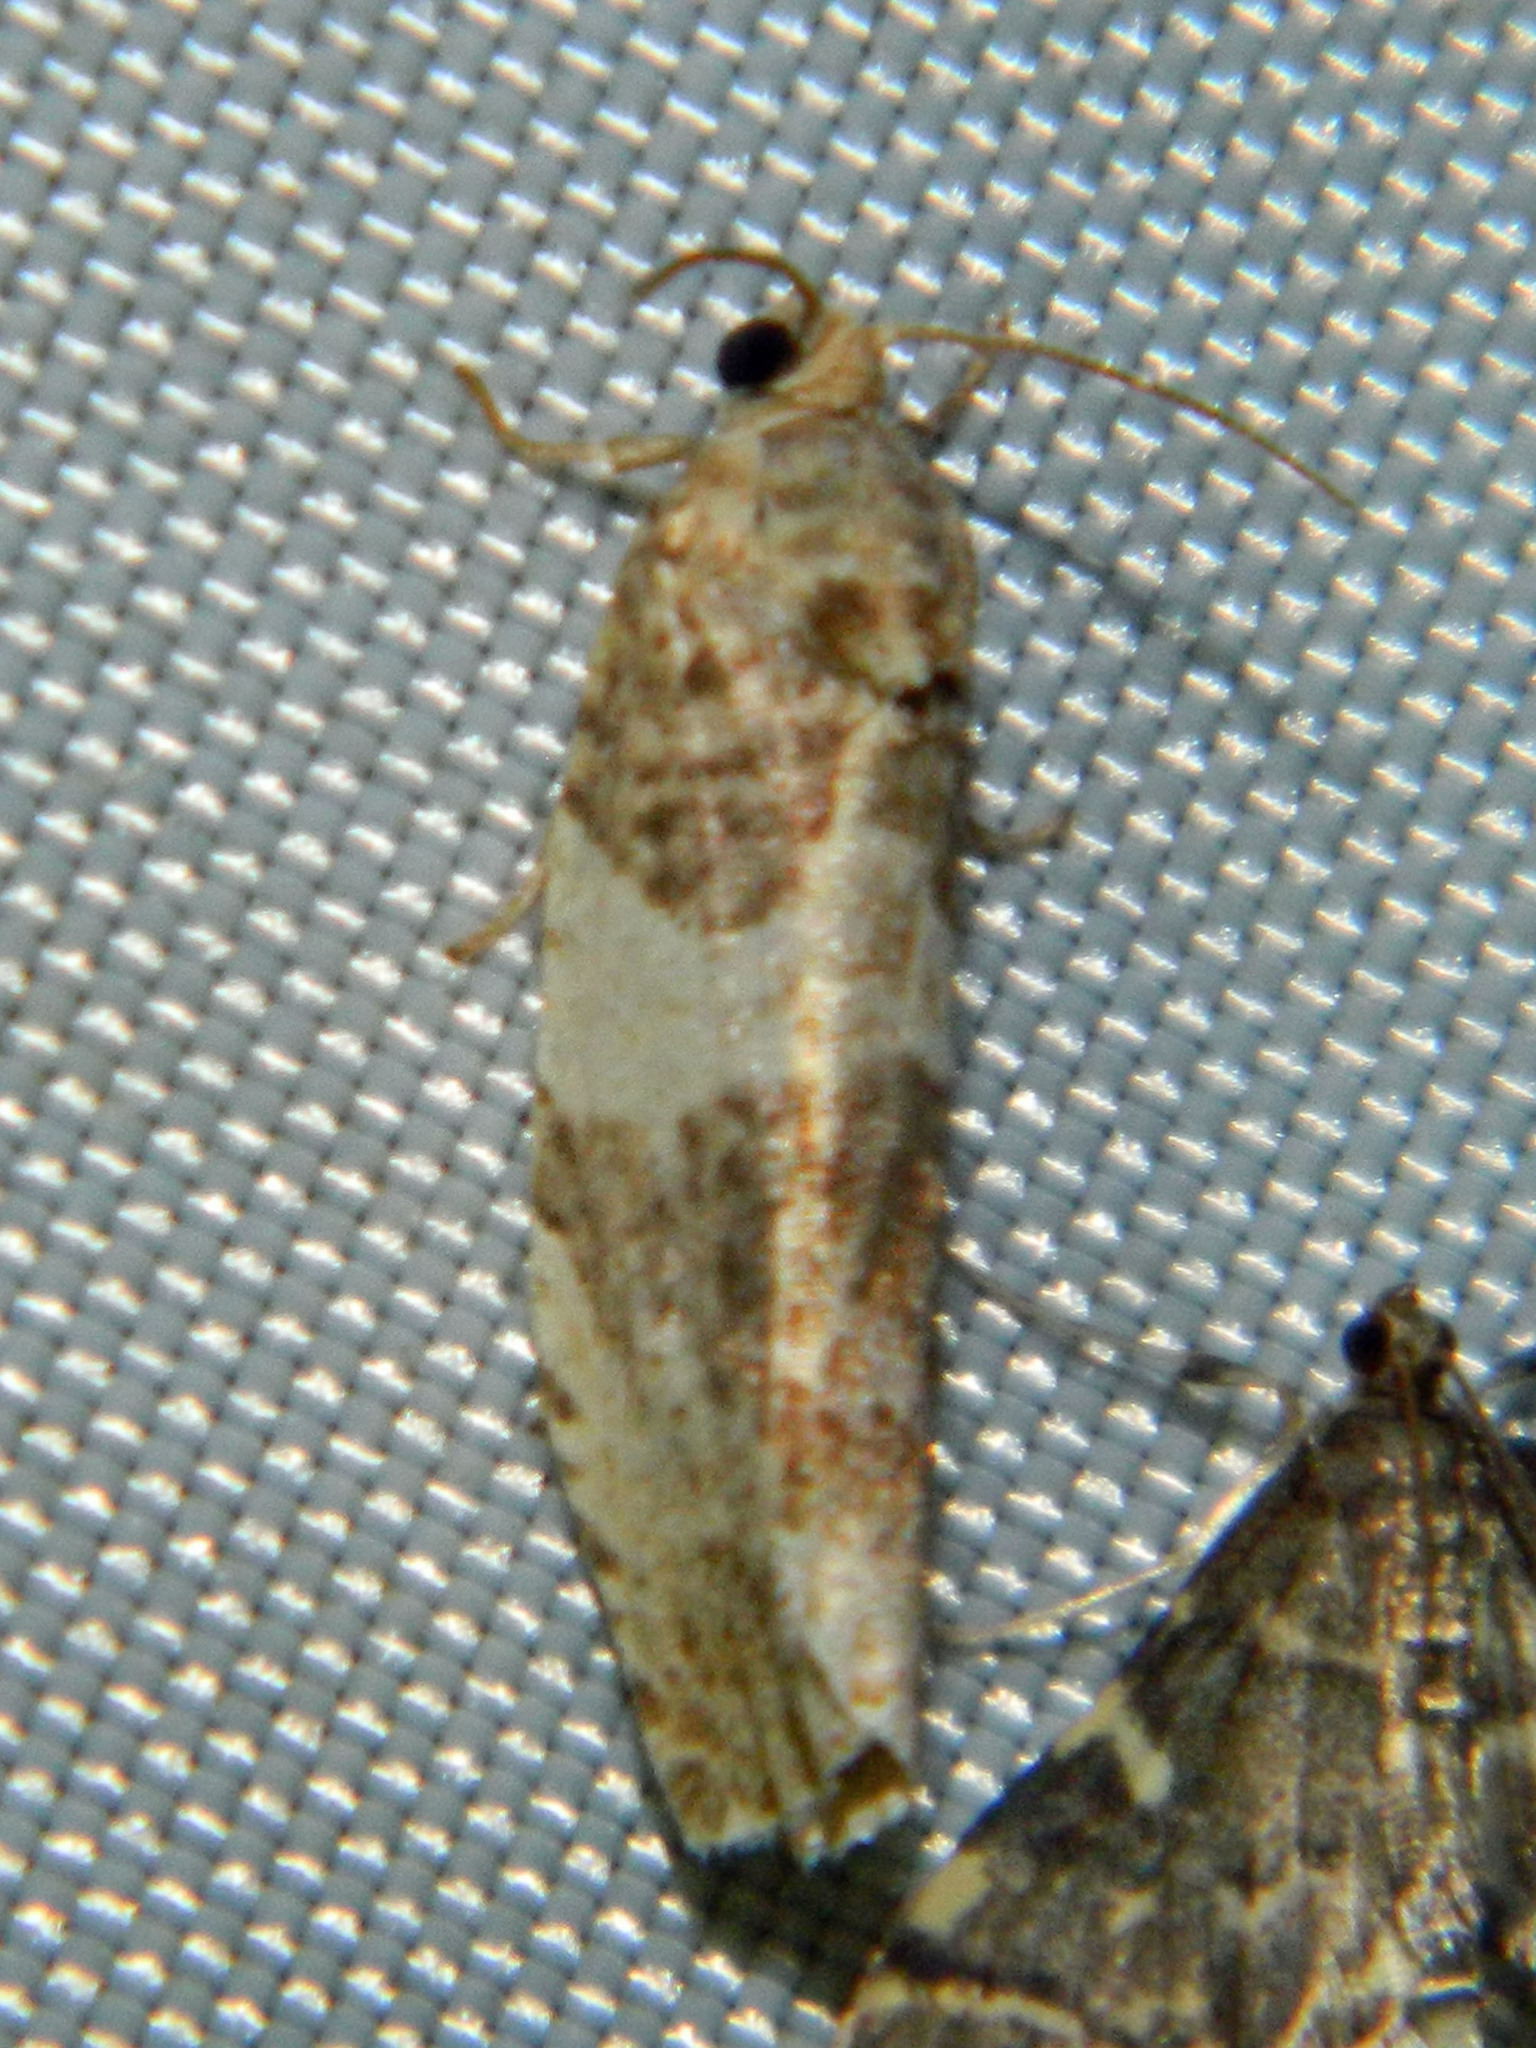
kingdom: Animalia
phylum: Arthropoda
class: Insecta
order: Lepidoptera
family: Tortricidae
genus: Pseudosciaphila
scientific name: Pseudosciaphila duplex
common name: Poplar leafroller moth
